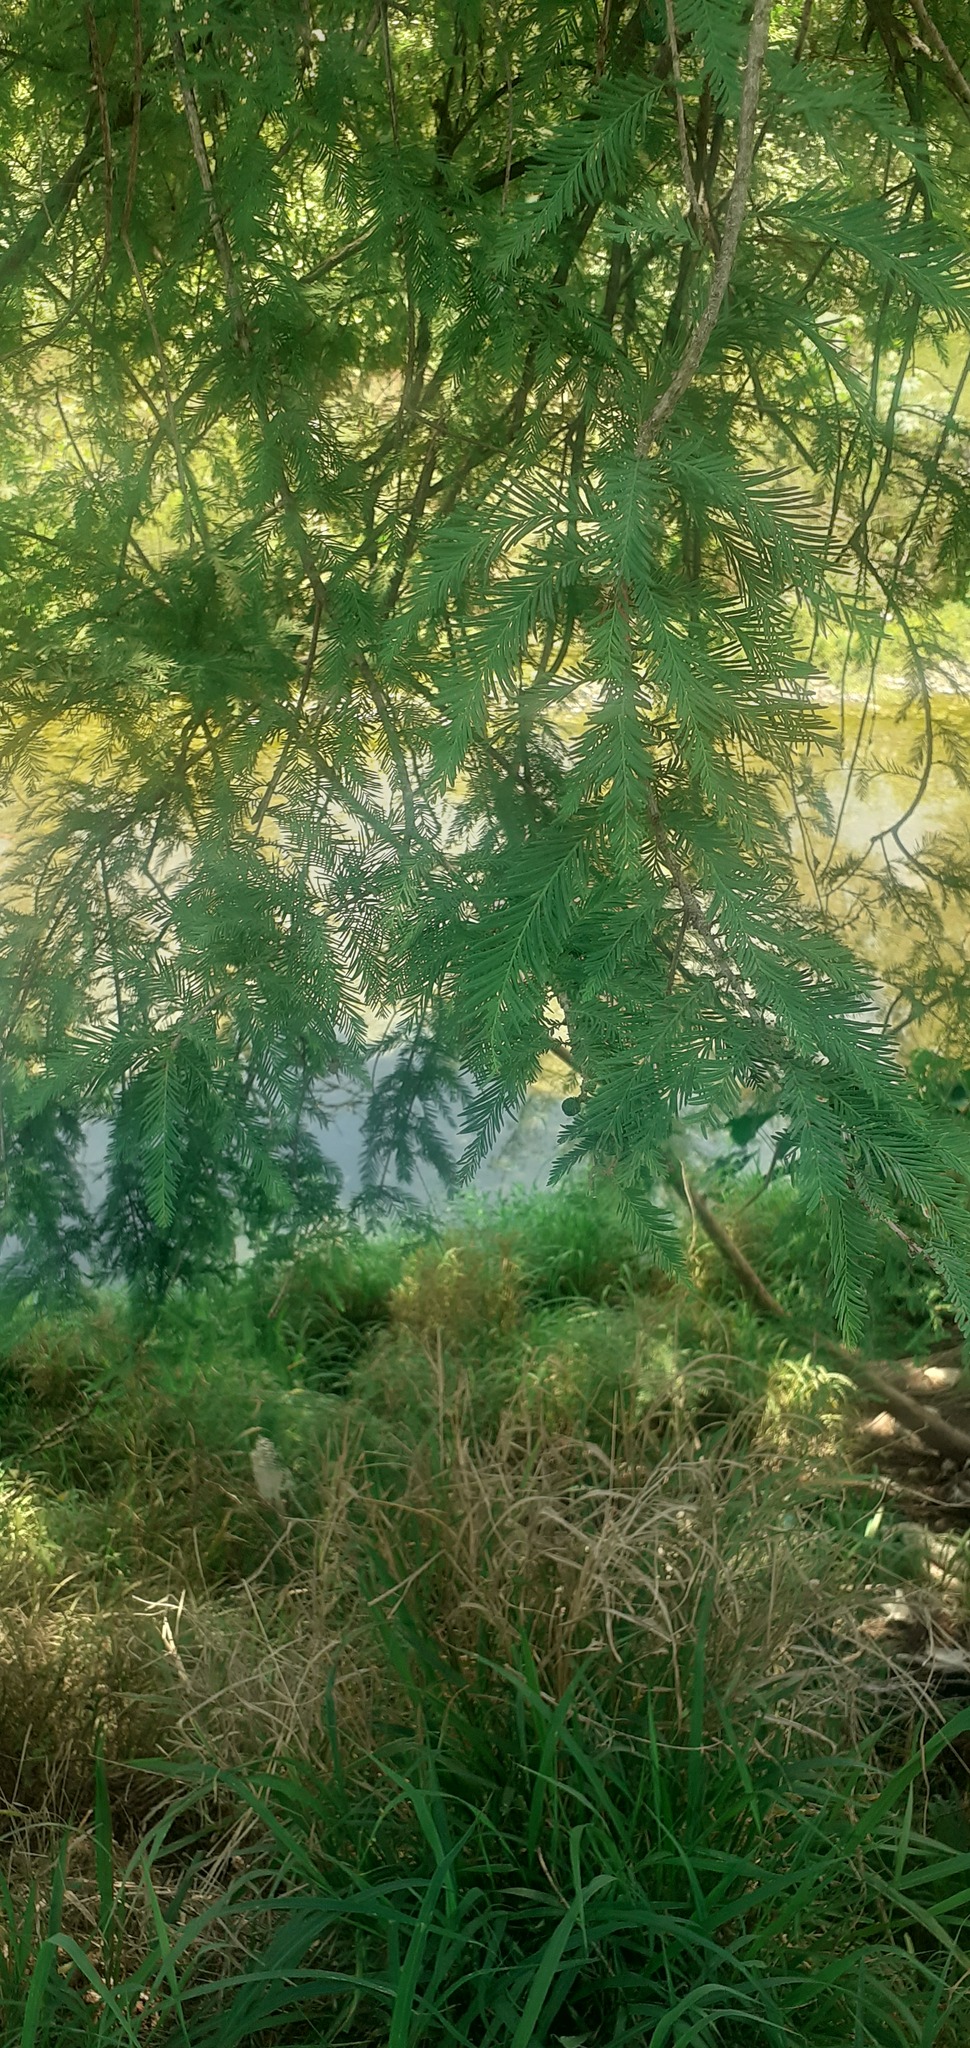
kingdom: Plantae
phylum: Tracheophyta
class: Pinopsida
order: Pinales
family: Cupressaceae
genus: Taxodium
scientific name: Taxodium mucronatum
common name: Montezume bald cypress
